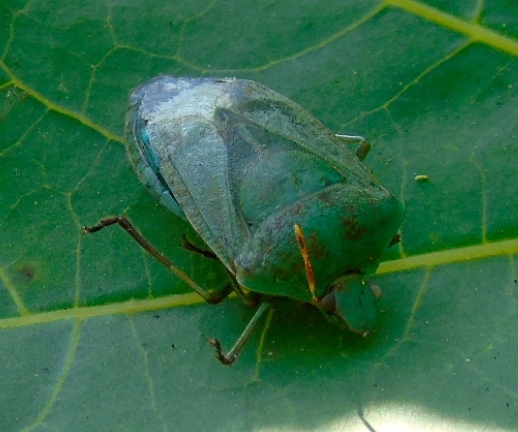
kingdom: Animalia
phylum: Arthropoda
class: Insecta
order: Hemiptera
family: Pentatomidae
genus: Nezara
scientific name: Nezara viridula
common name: Southern green stink bug
